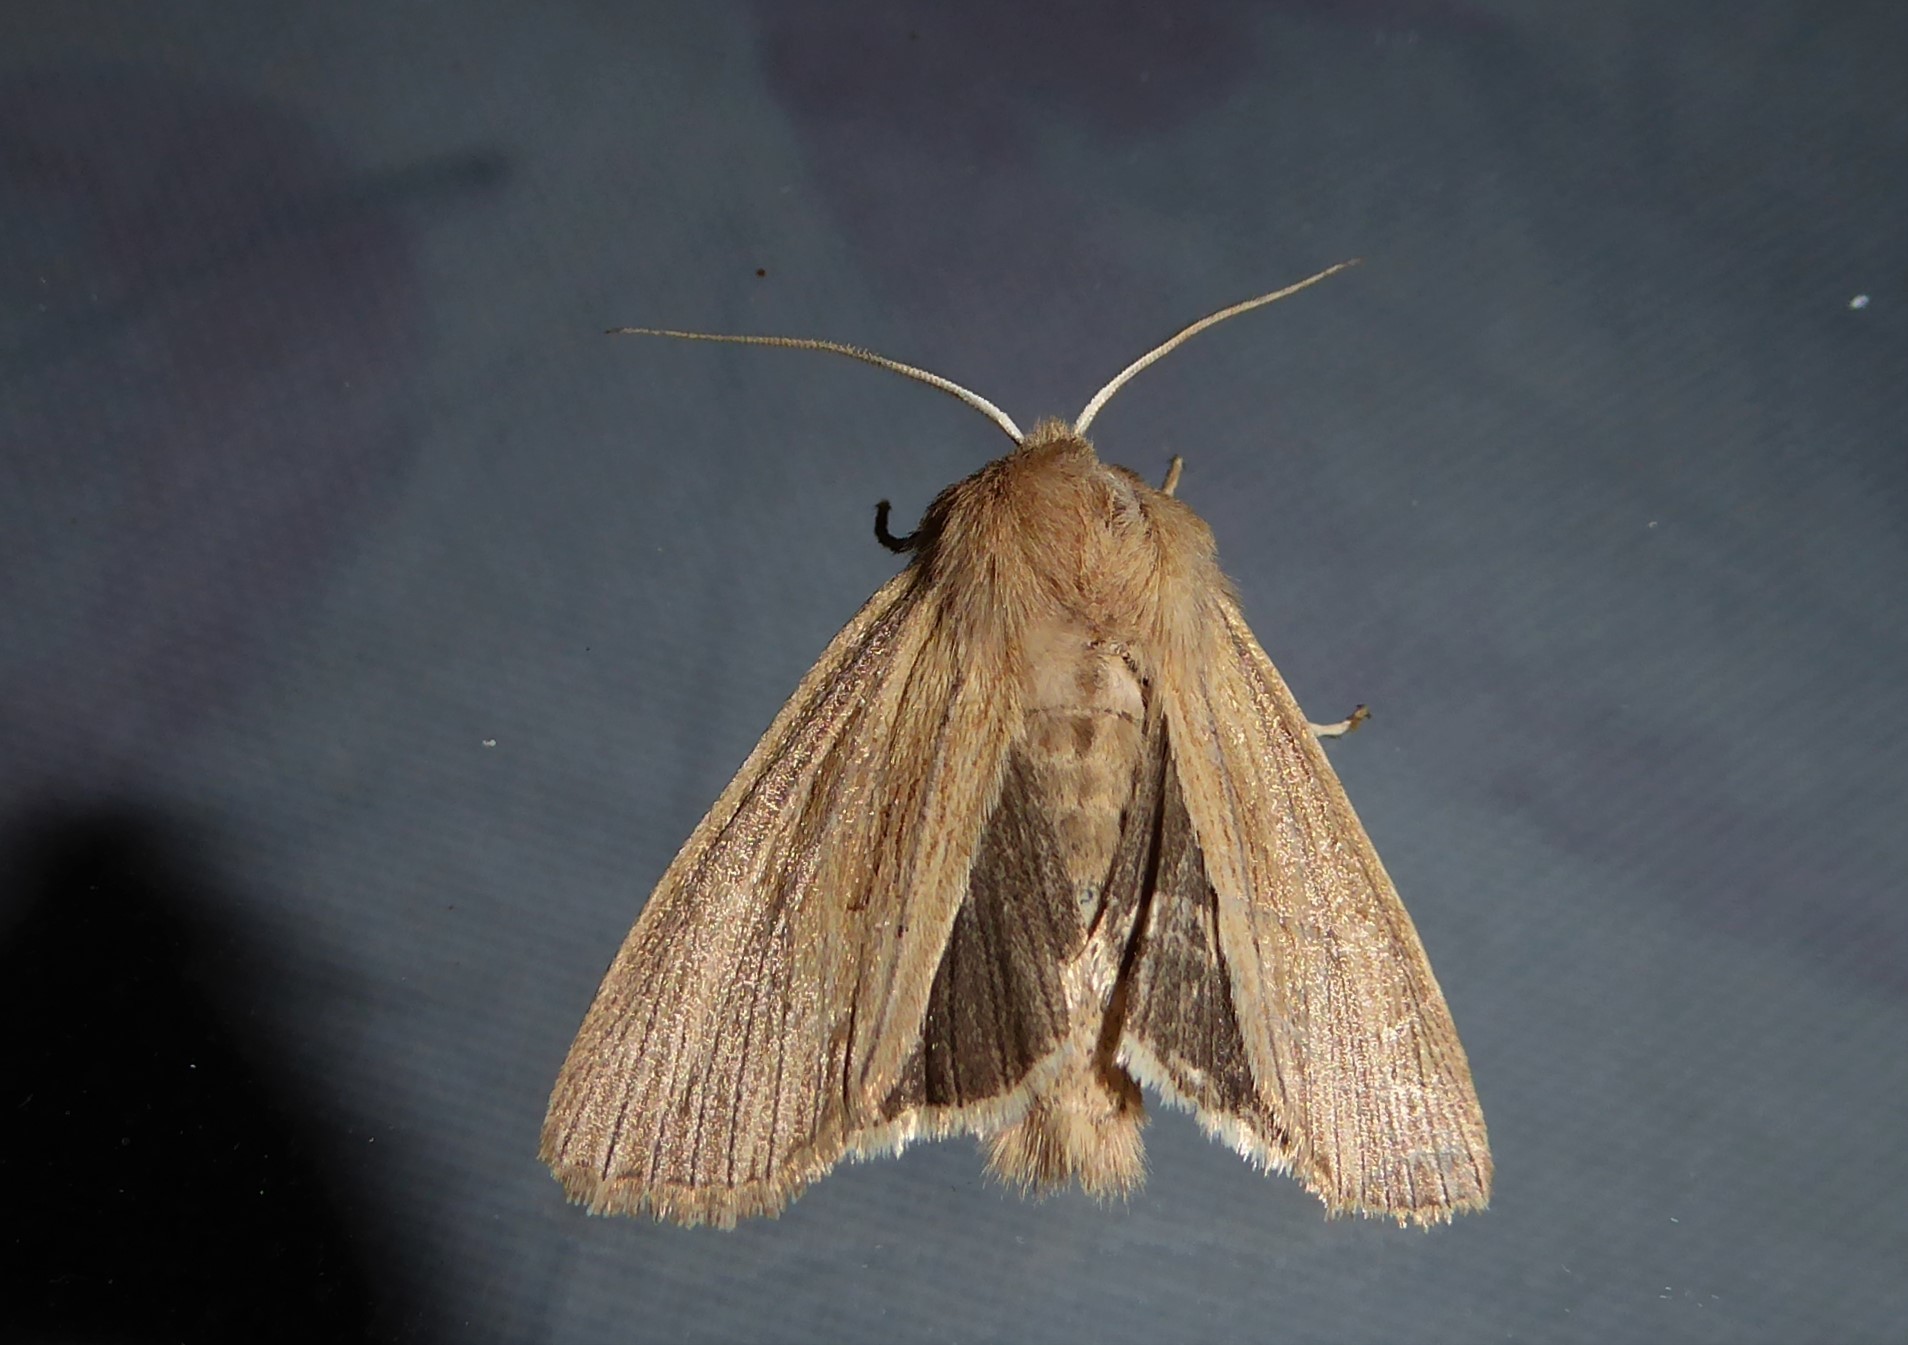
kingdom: Animalia
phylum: Arthropoda
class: Insecta
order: Lepidoptera
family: Noctuidae
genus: Ichneutica
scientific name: Ichneutica arotis
